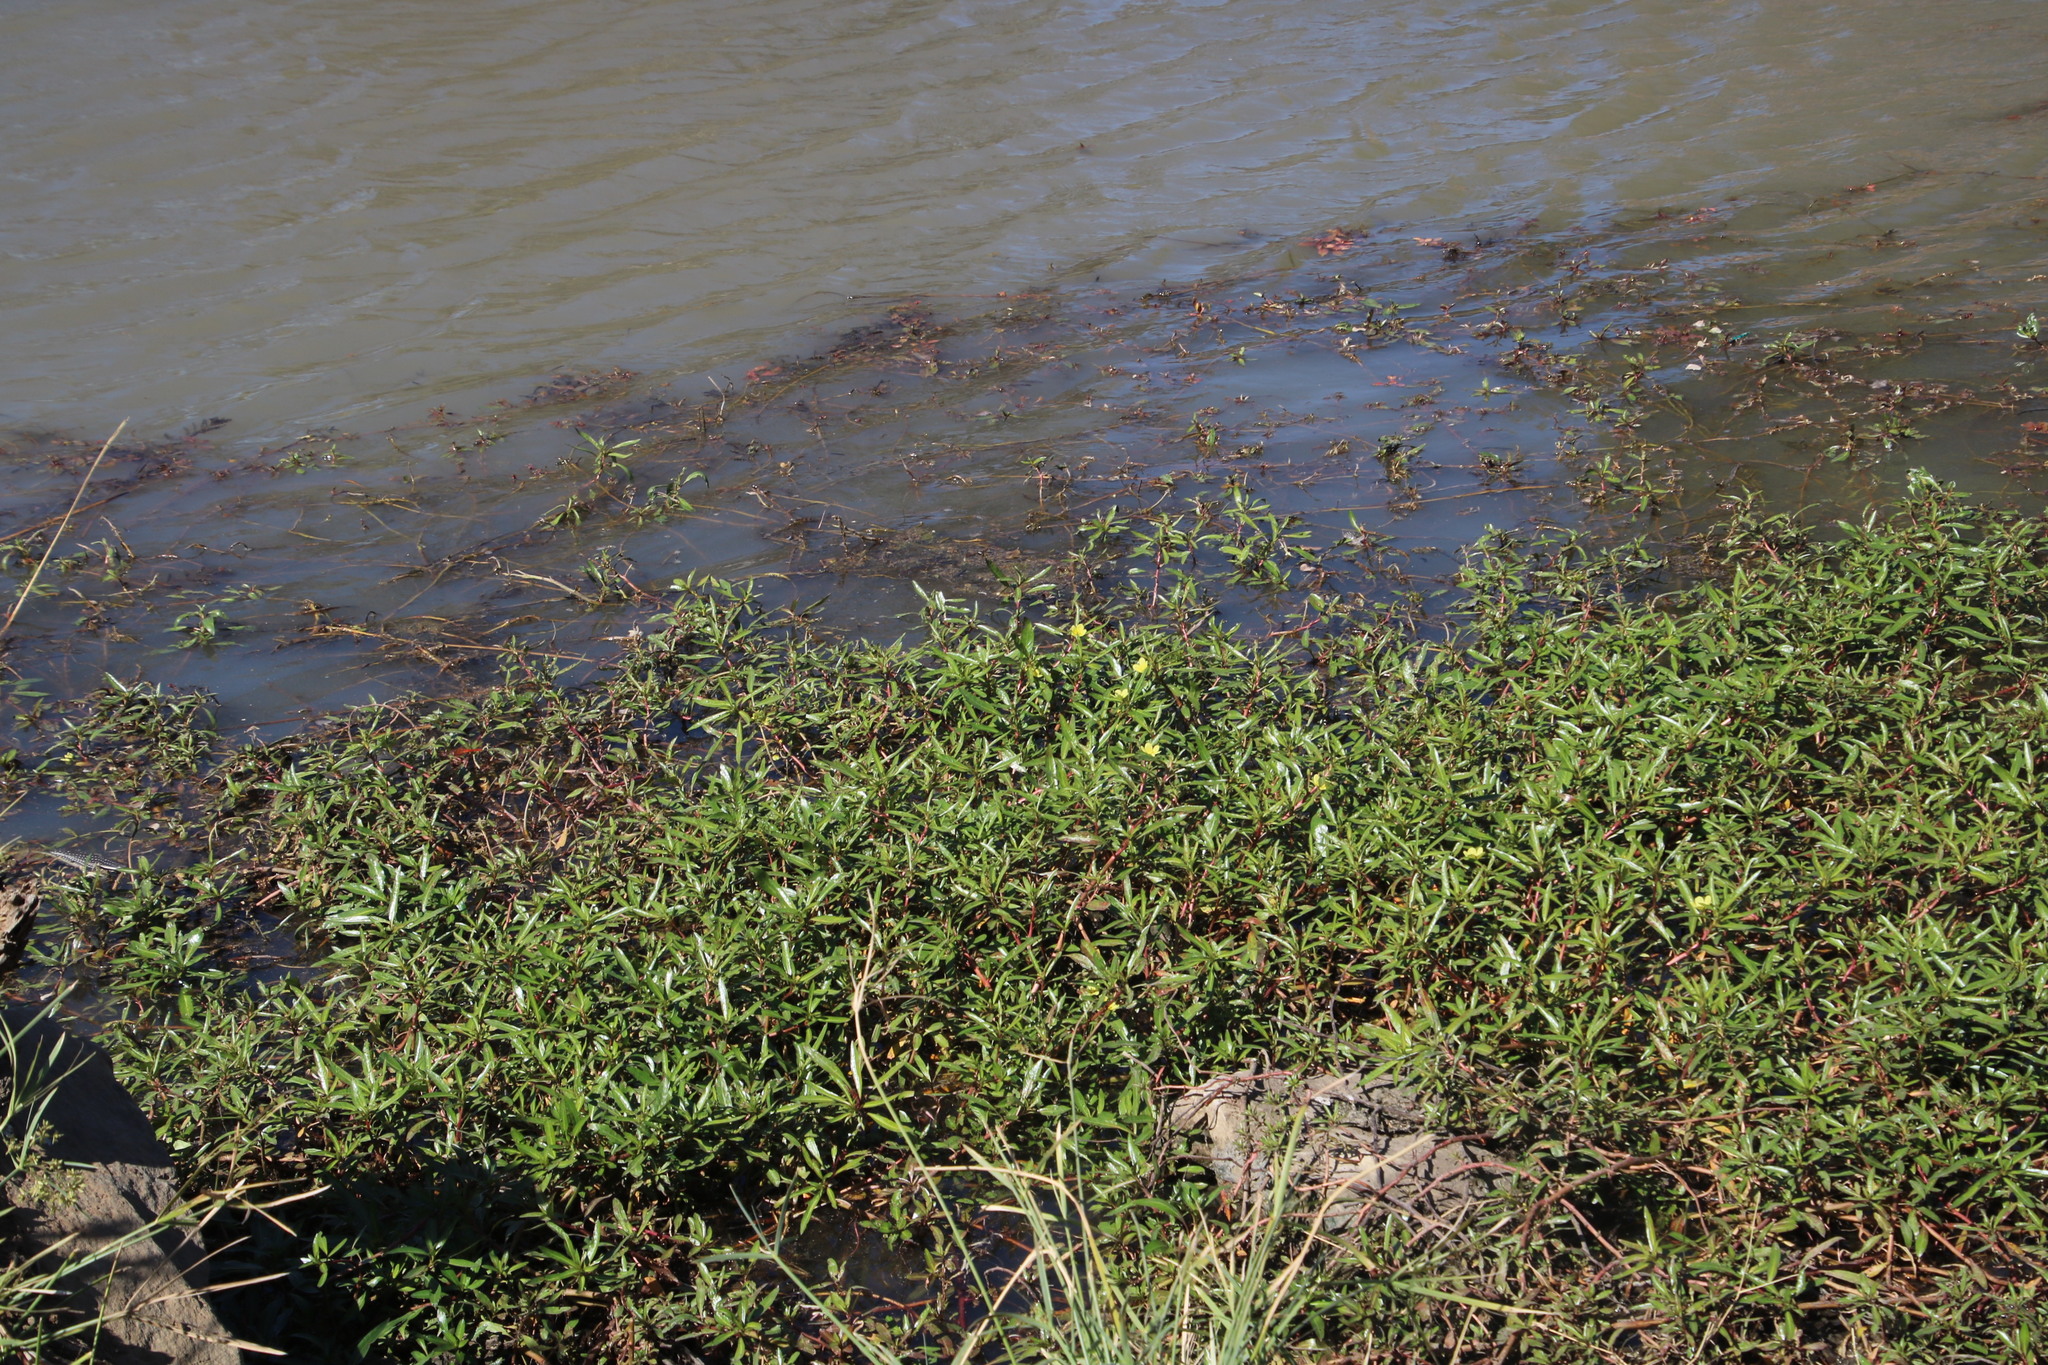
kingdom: Plantae
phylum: Tracheophyta
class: Magnoliopsida
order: Myrtales
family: Onagraceae
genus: Ludwigia
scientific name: Ludwigia adscendens
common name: Creeping water primrose
